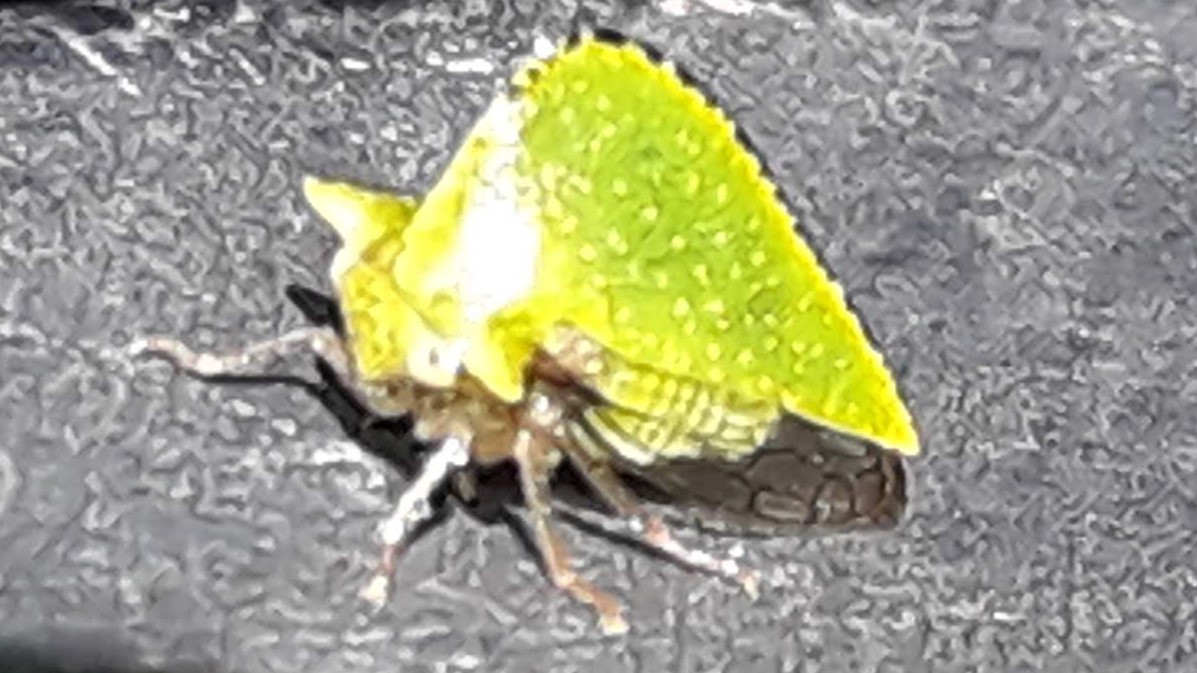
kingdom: Animalia
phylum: Arthropoda
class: Insecta
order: Hemiptera
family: Membracidae
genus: Antianthe
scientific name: Antianthe expansa
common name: Keeled tree hopper
